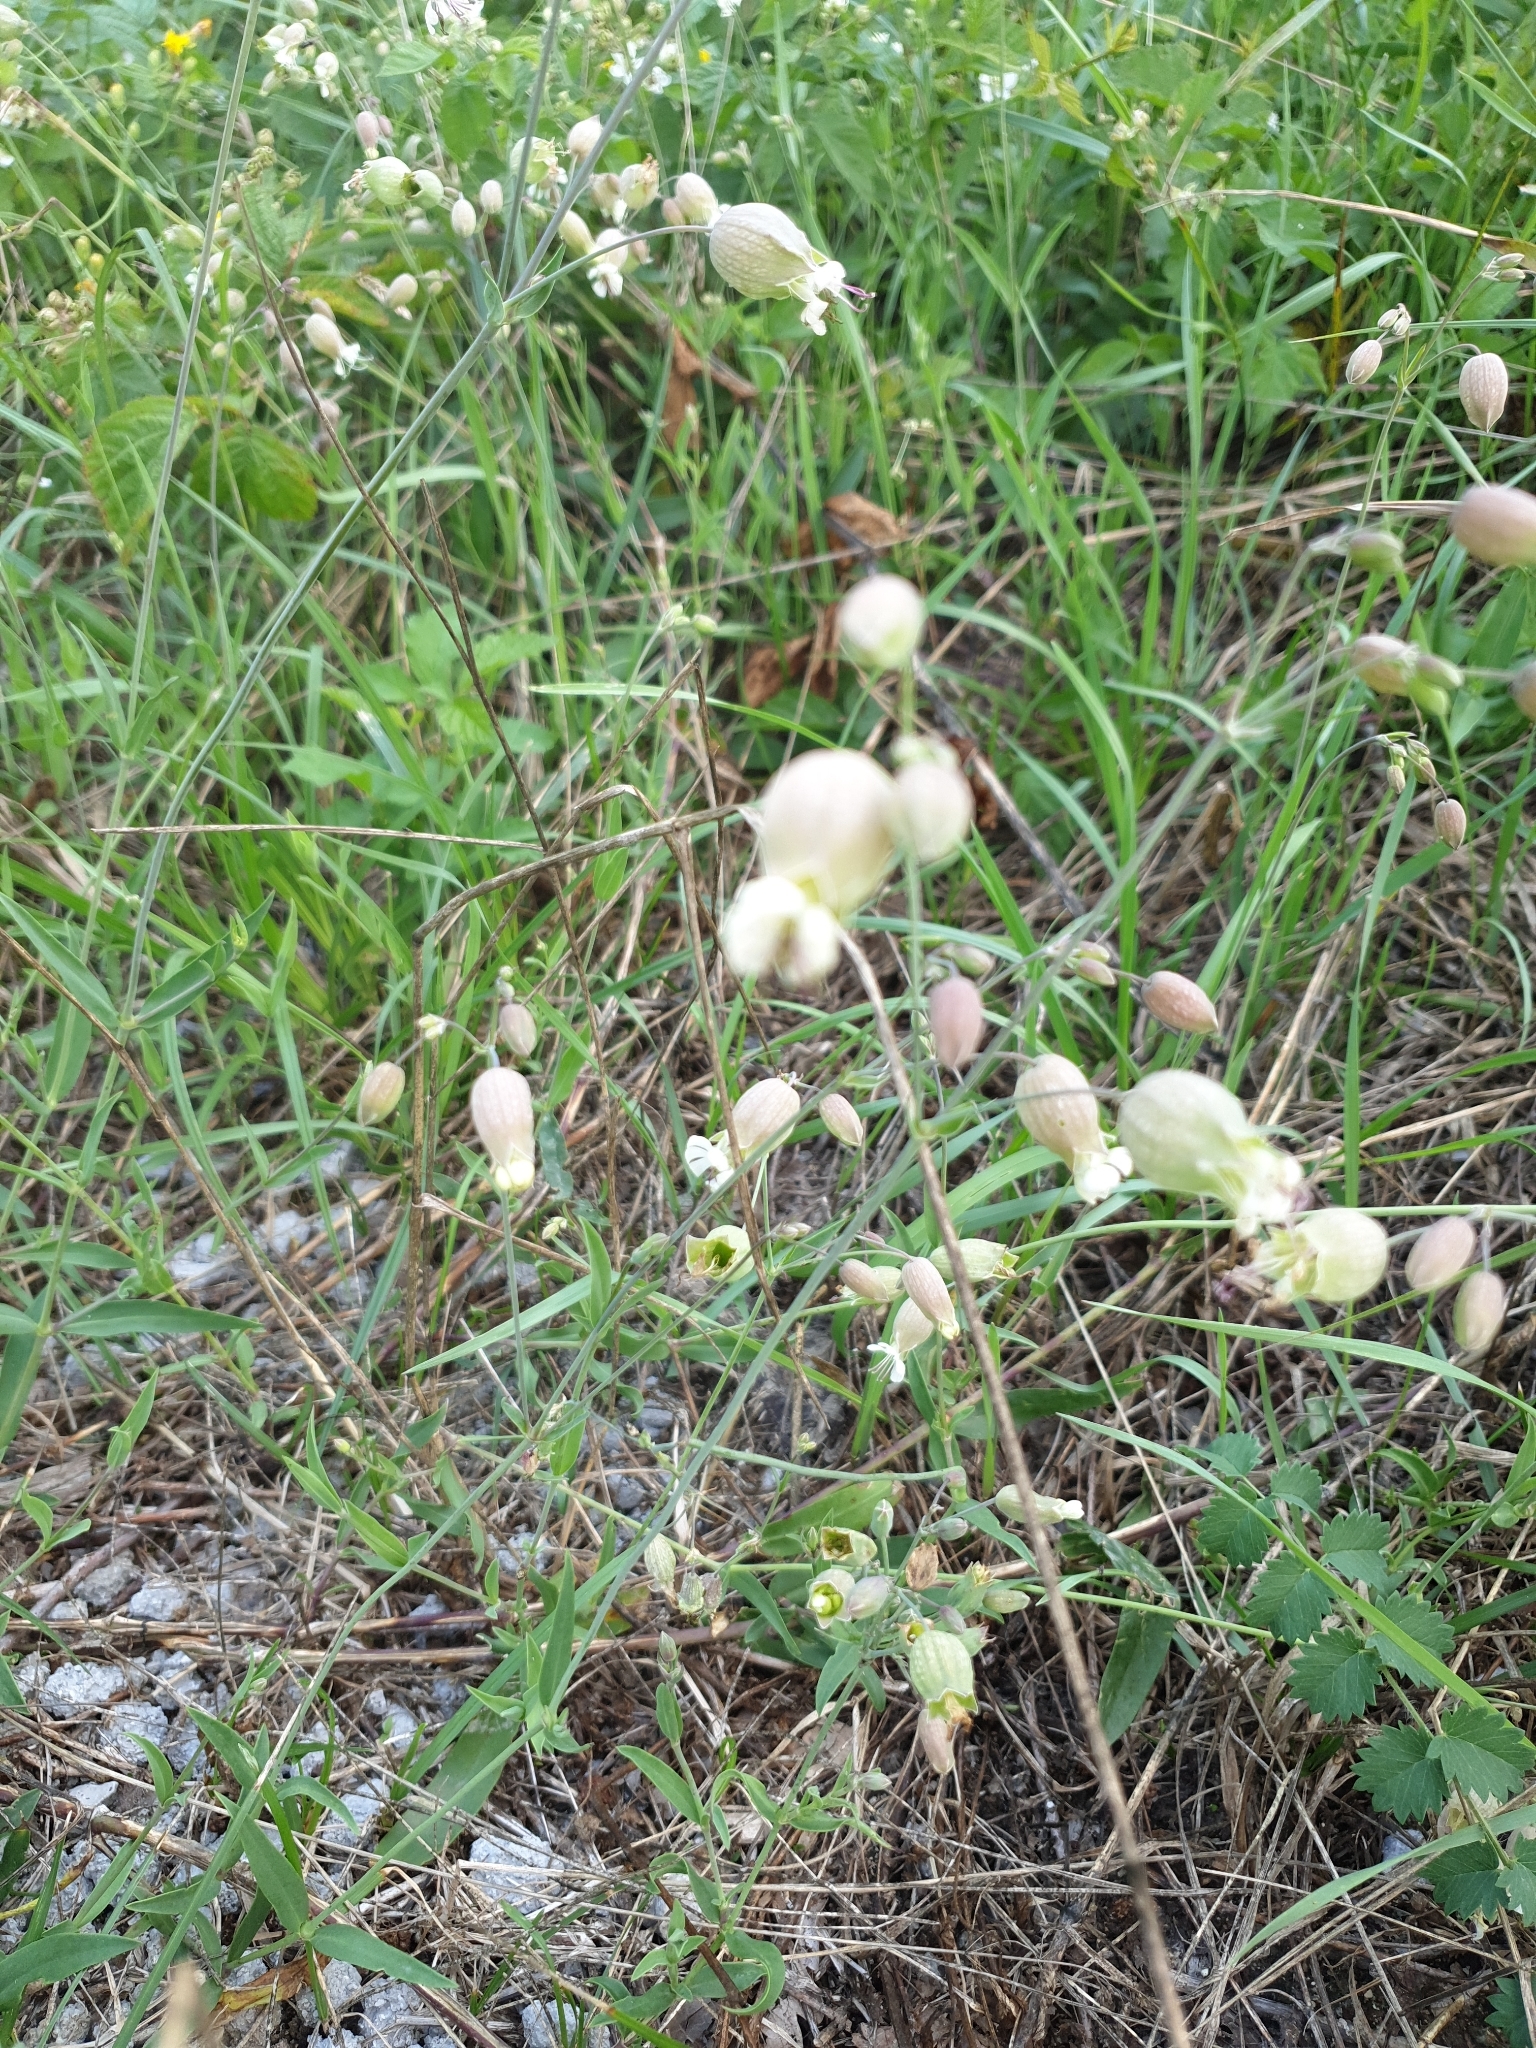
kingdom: Plantae
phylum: Tracheophyta
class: Magnoliopsida
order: Caryophyllales
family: Caryophyllaceae
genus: Silene
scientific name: Silene vulgaris
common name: Bladder campion
